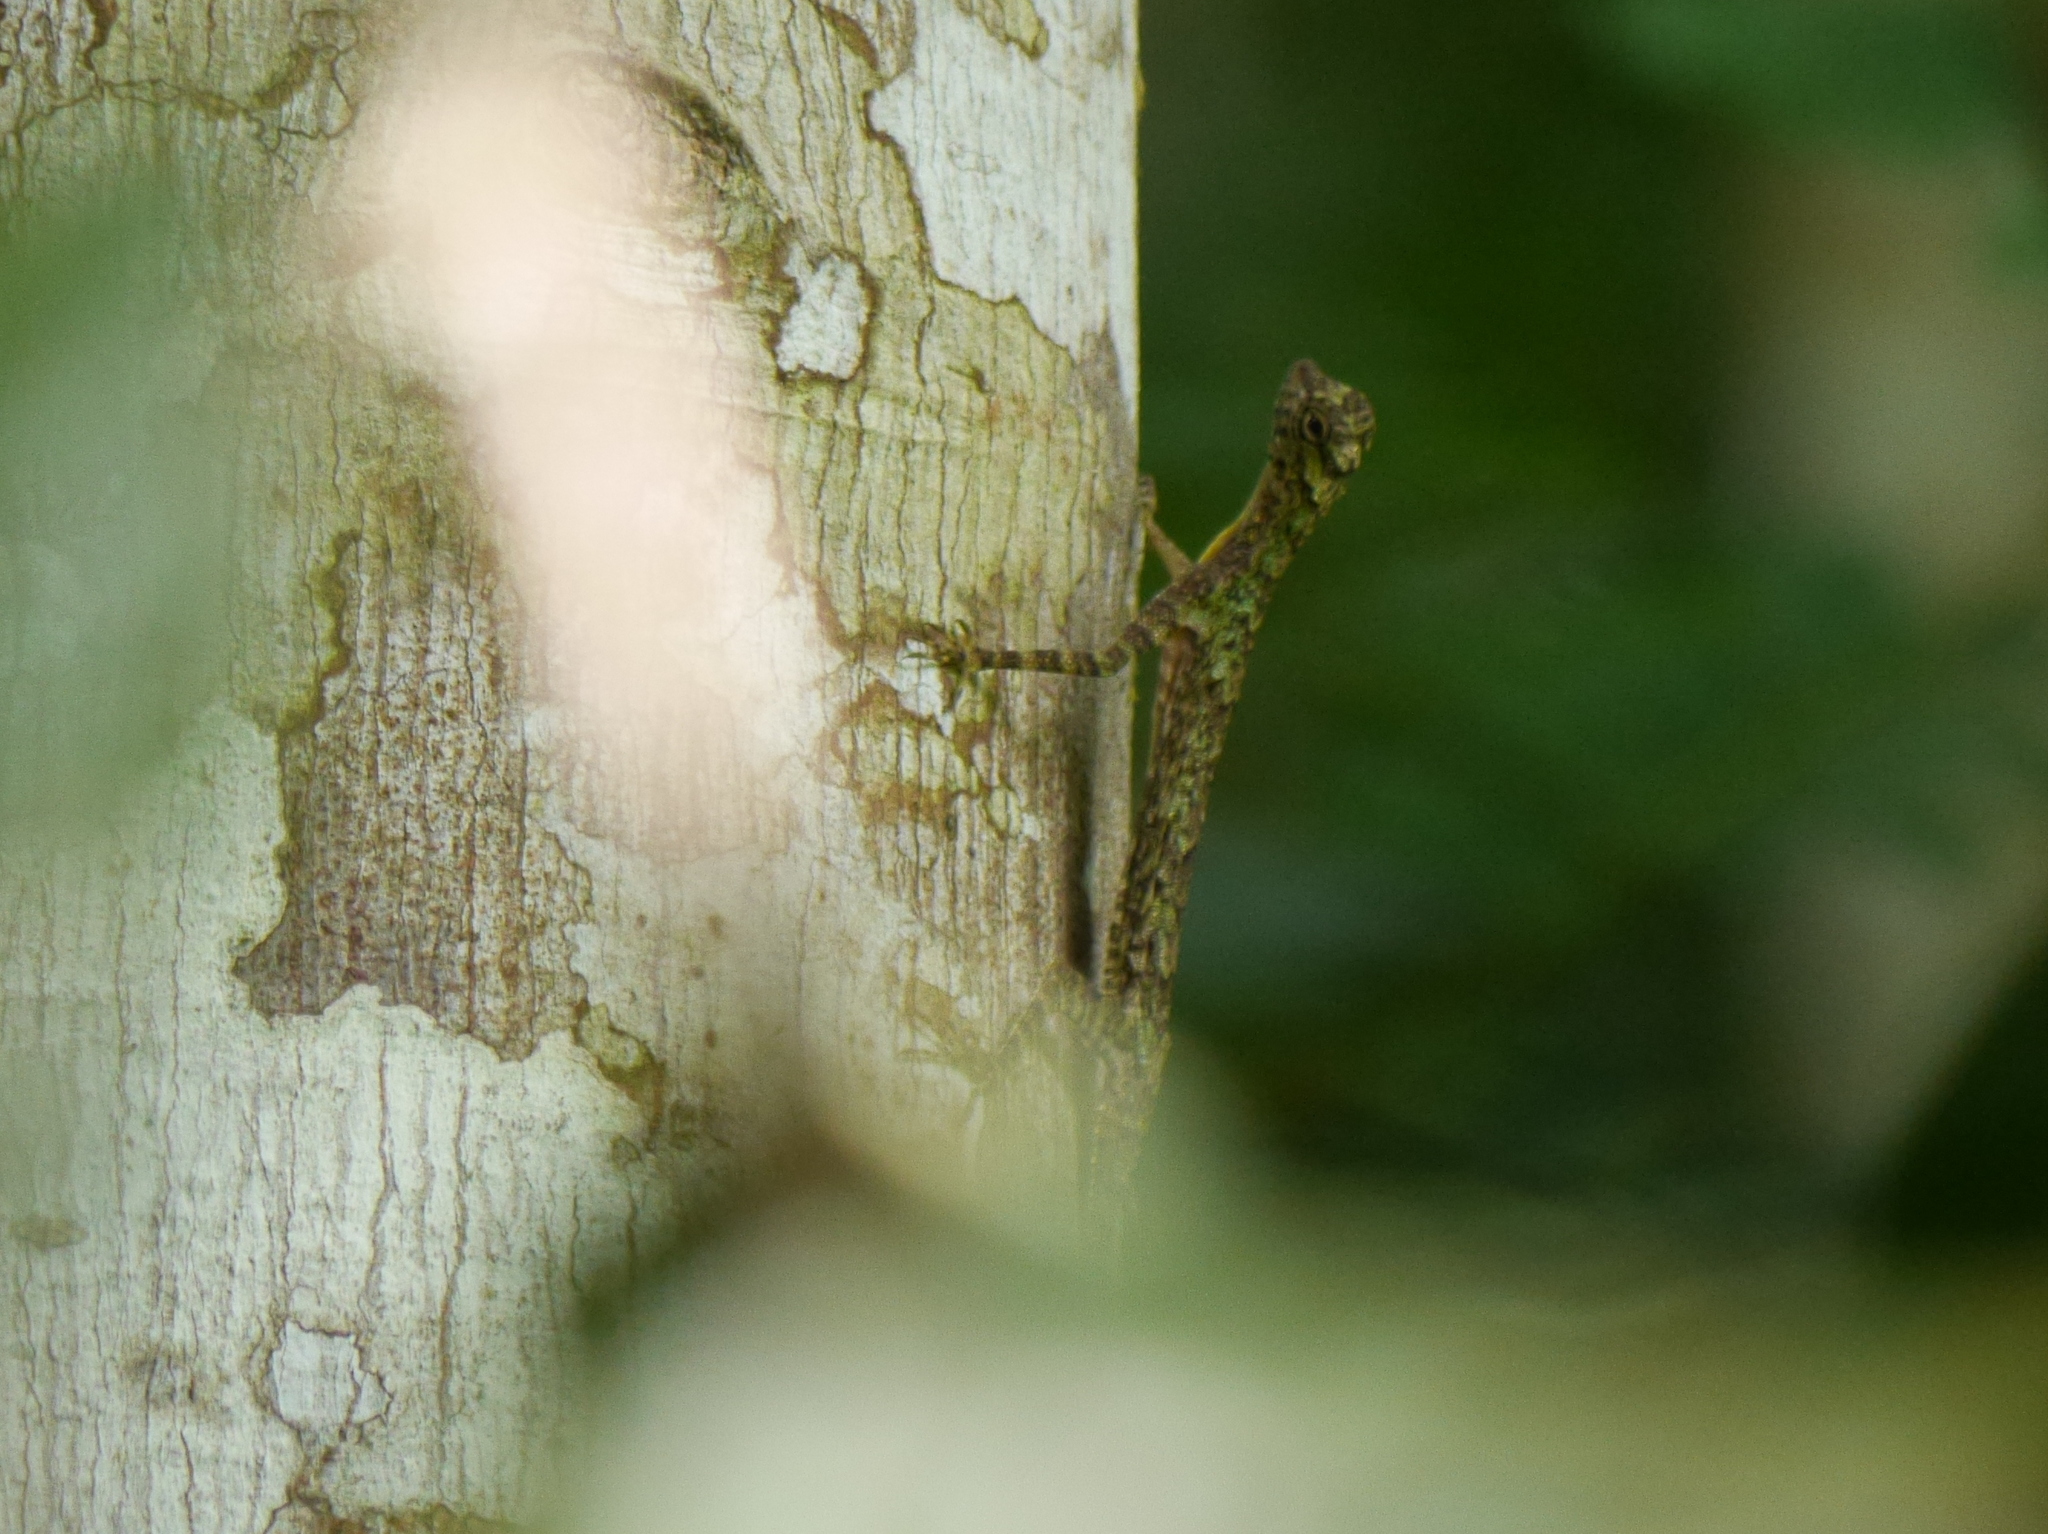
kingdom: Animalia
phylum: Chordata
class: Squamata
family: Agamidae
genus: Draco
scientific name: Draco sumatranus
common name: Common gliding lizard
